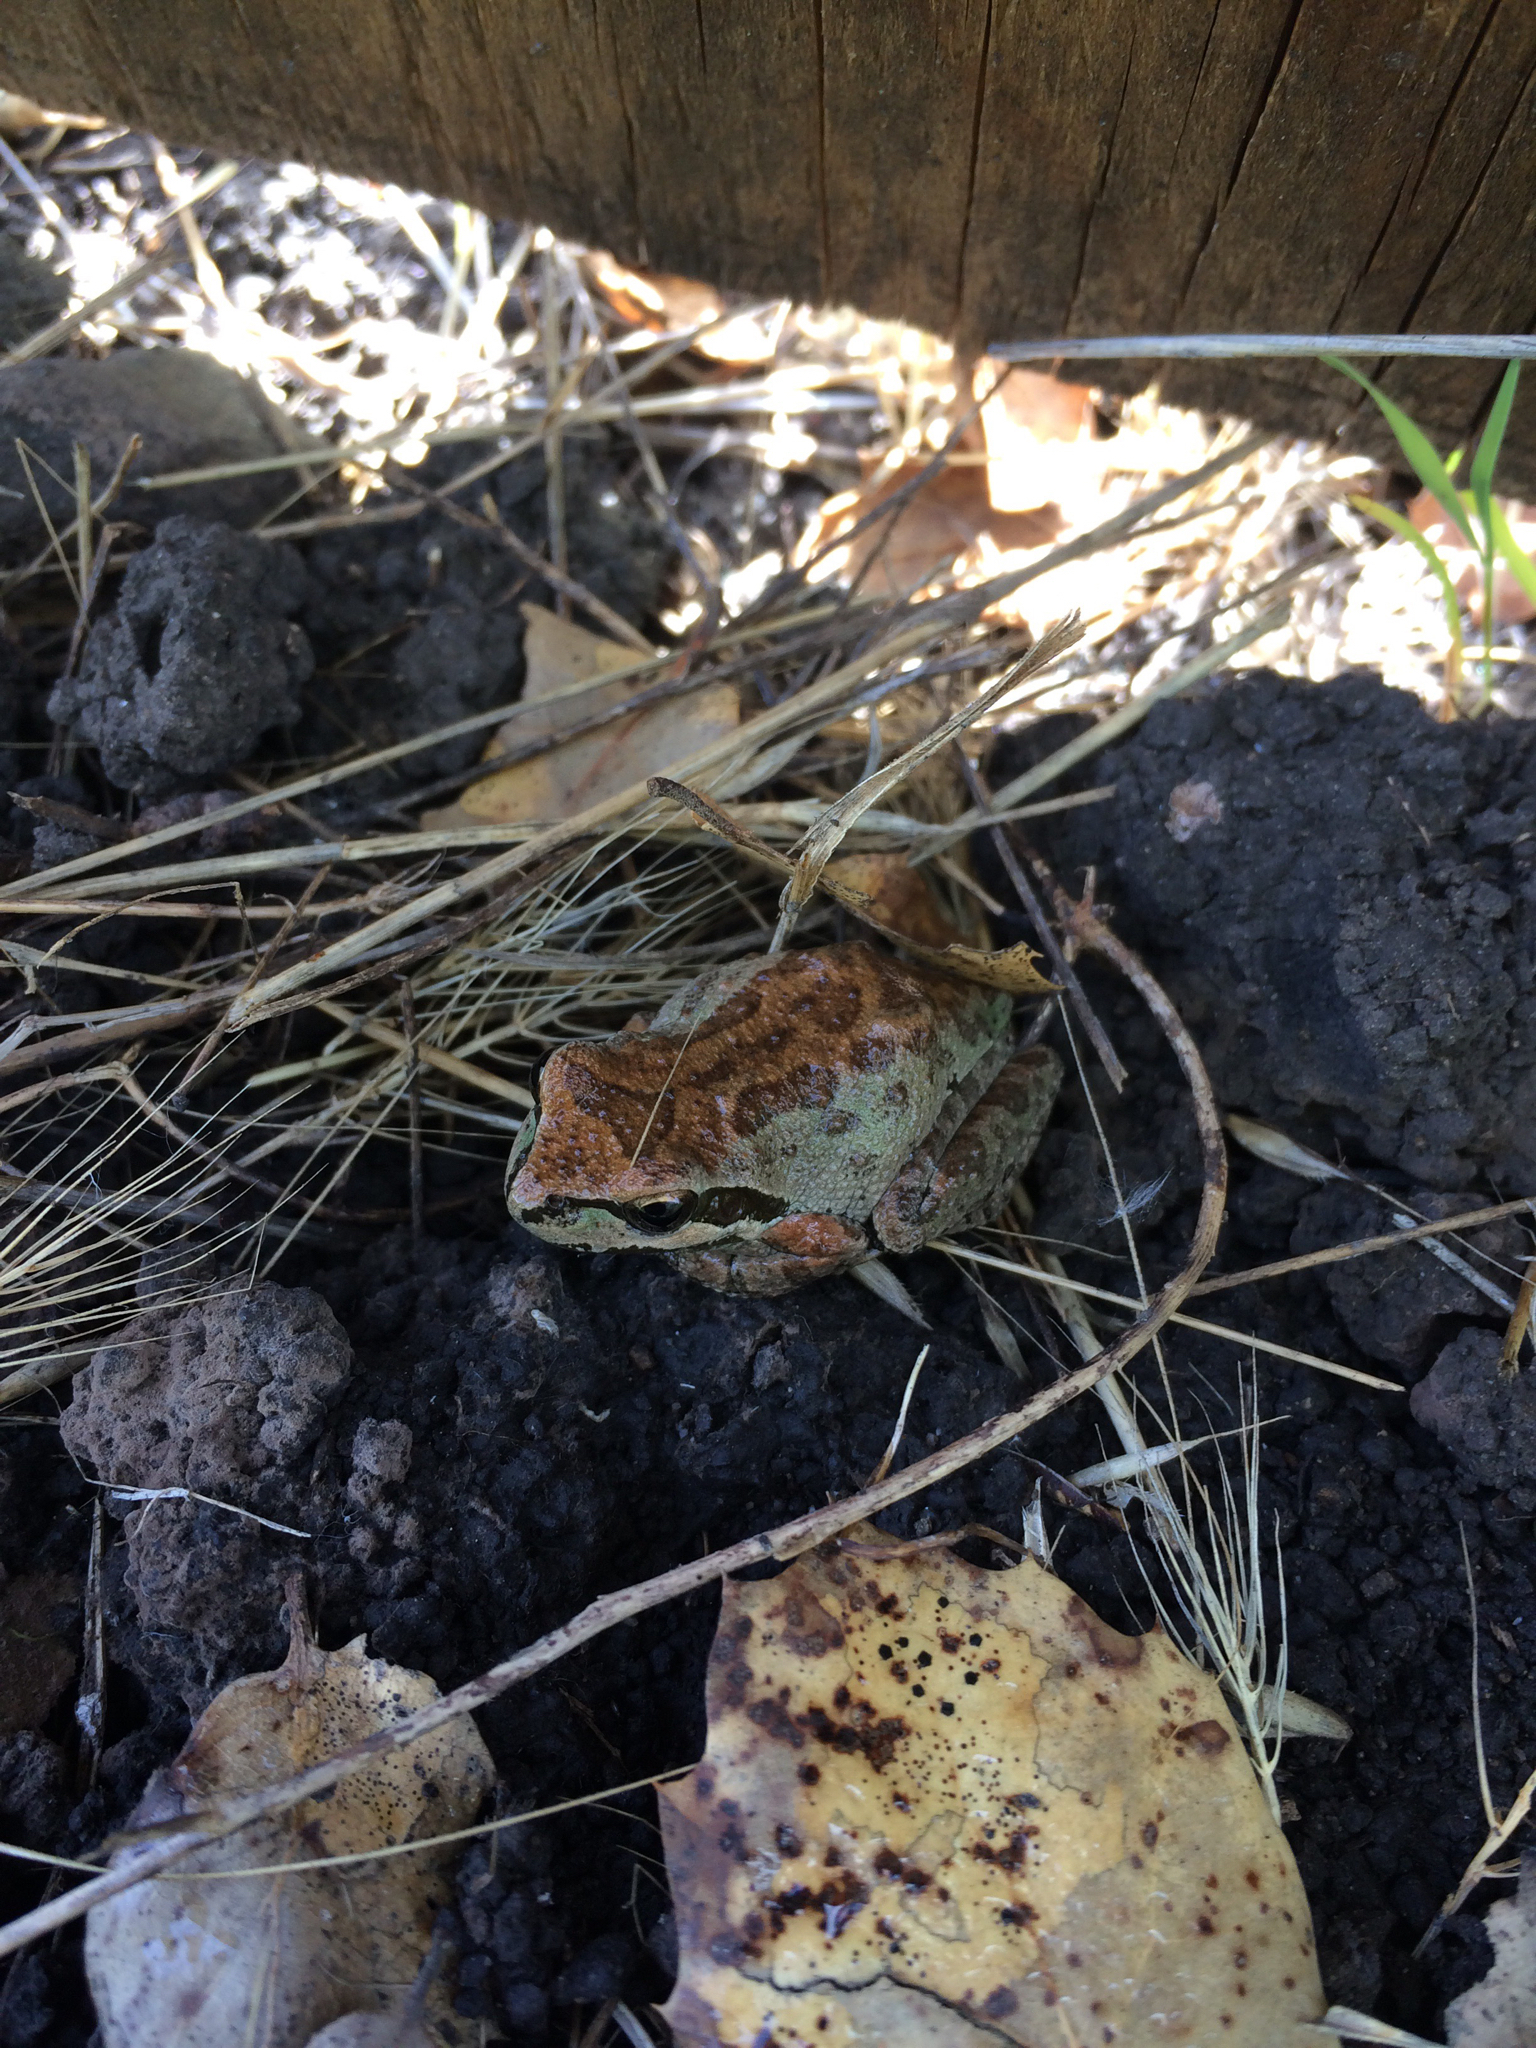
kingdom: Animalia
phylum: Chordata
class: Amphibia
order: Anura
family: Hylidae
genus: Pseudacris
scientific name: Pseudacris regilla
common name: Pacific chorus frog
